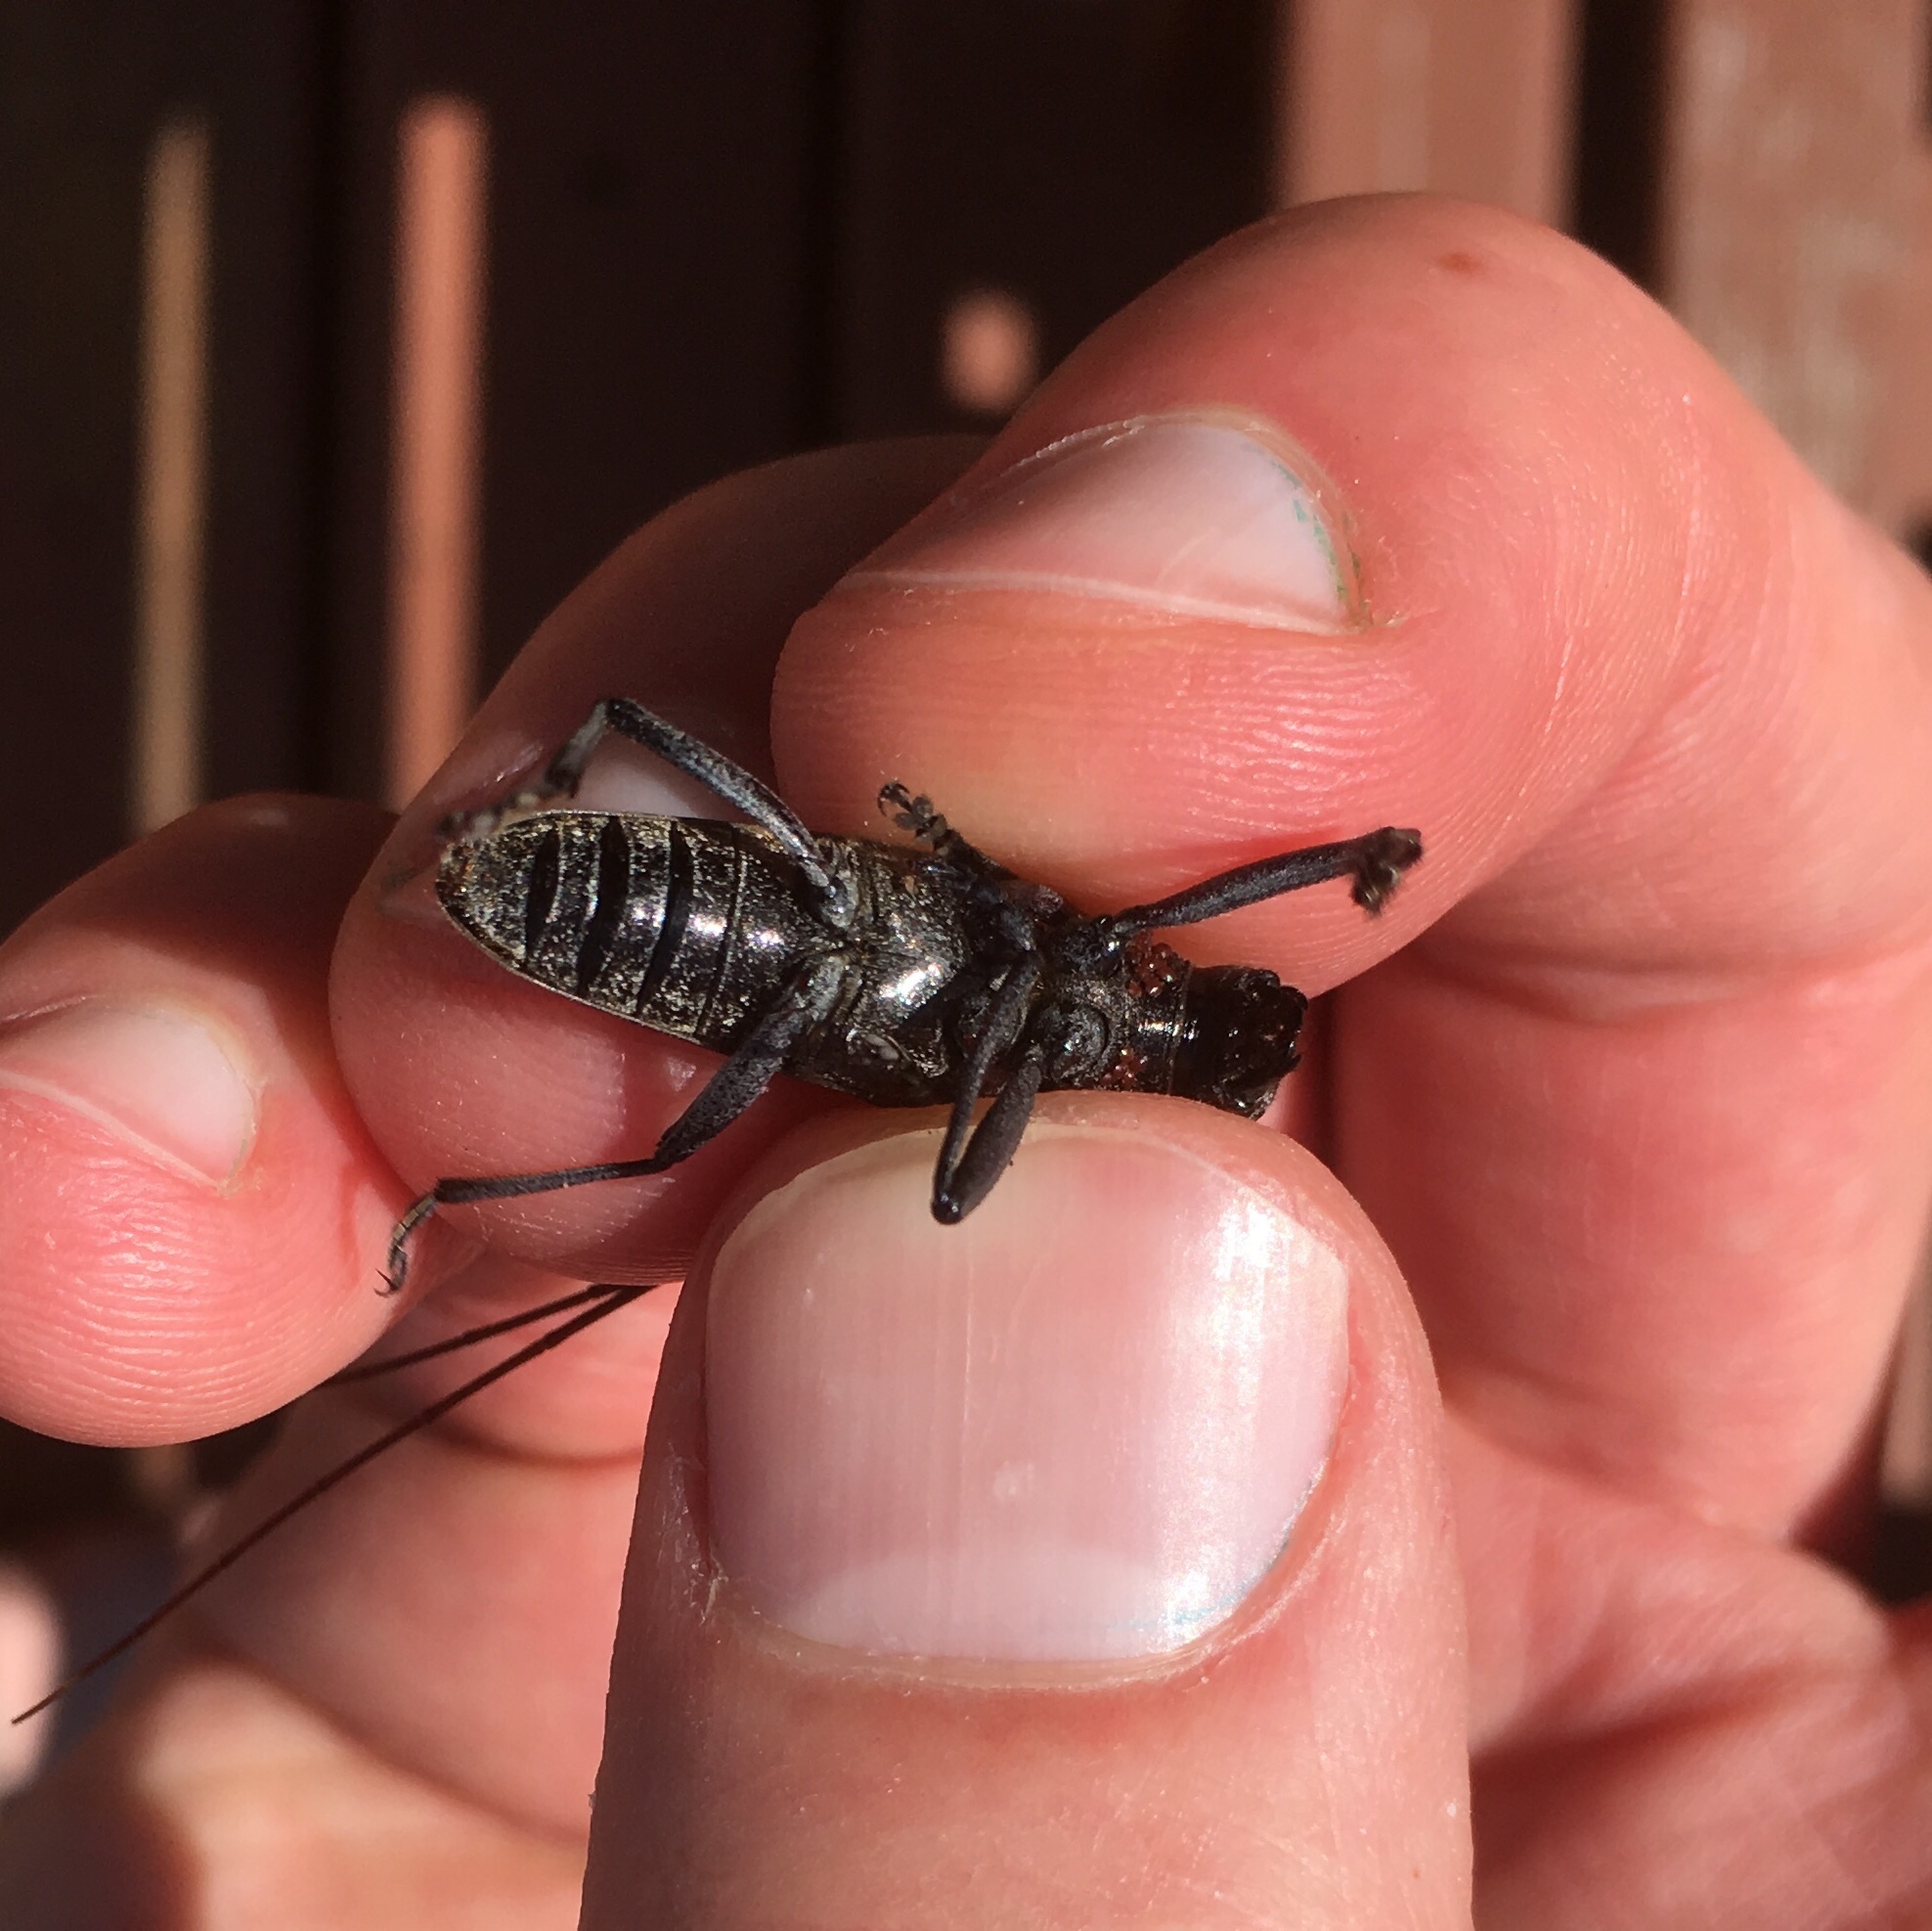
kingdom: Animalia
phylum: Arthropoda
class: Insecta
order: Coleoptera
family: Cerambycidae
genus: Monochamus
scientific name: Monochamus scutellatus
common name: White-spotted sawyer beetle
